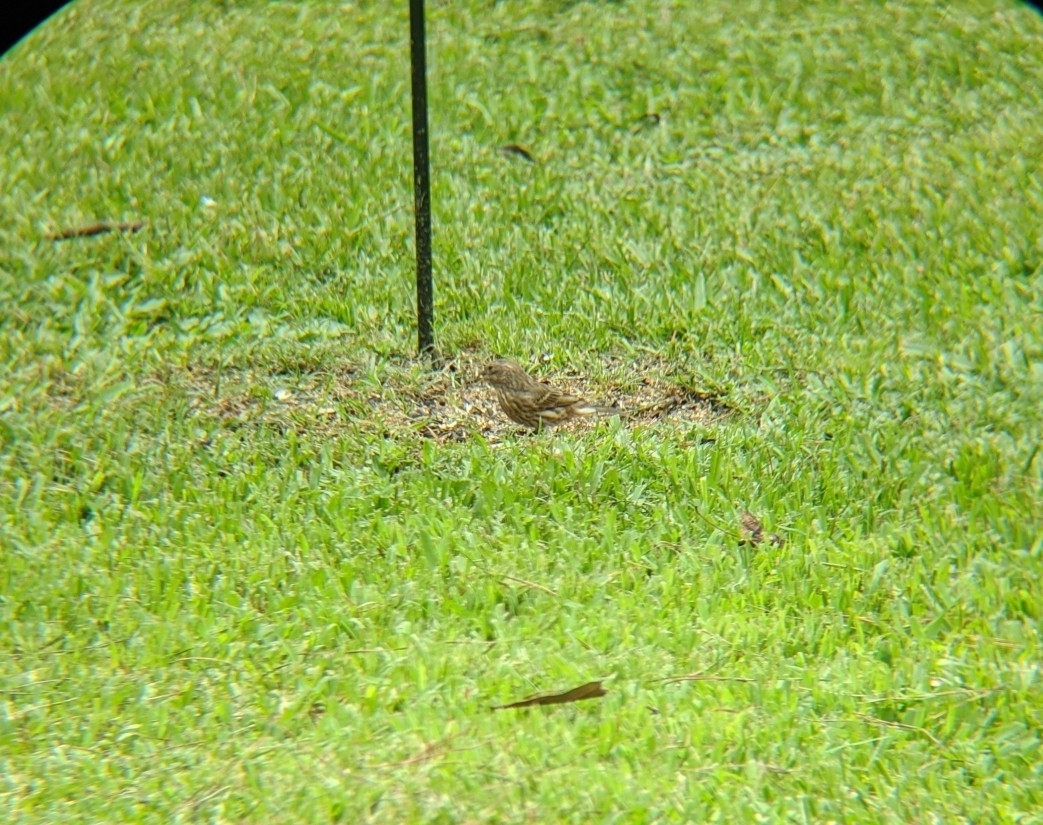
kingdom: Animalia
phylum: Chordata
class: Aves
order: Passeriformes
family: Fringillidae
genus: Haemorhous
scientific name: Haemorhous mexicanus
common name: House finch
